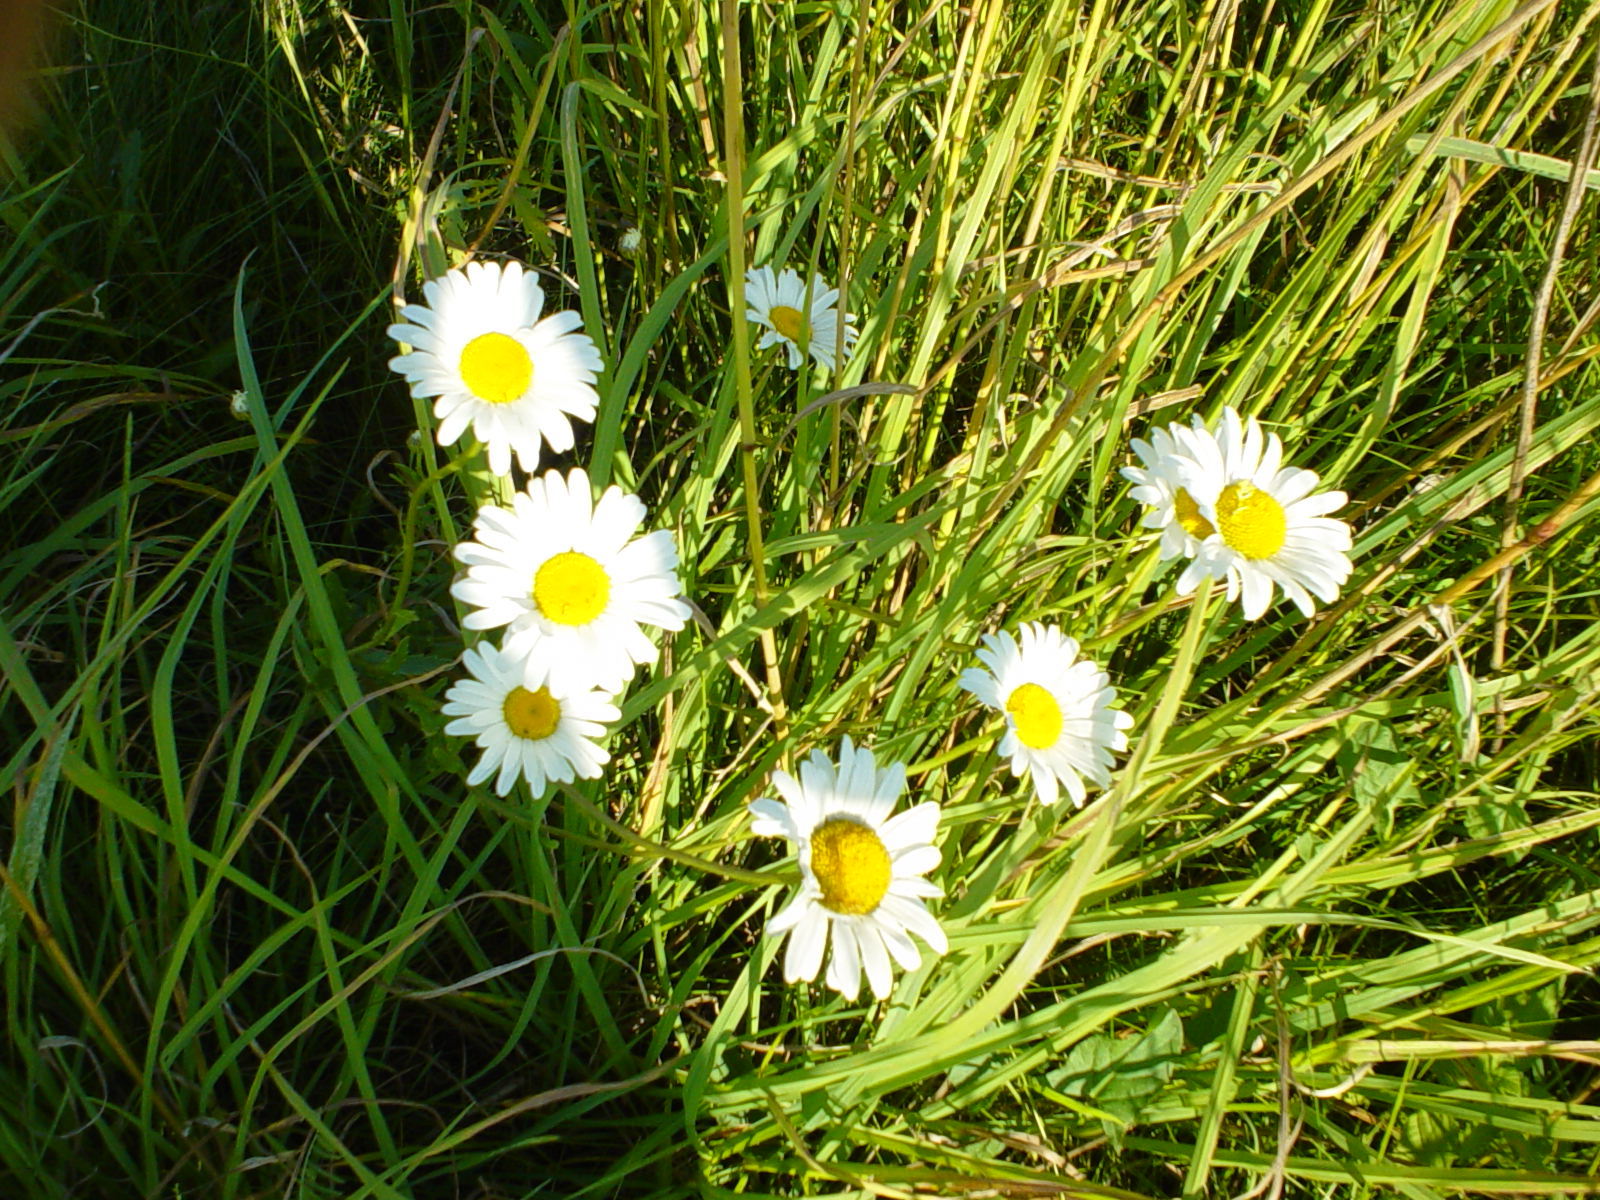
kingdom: Plantae
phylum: Tracheophyta
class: Magnoliopsida
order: Asterales
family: Asteraceae
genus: Leucanthemum
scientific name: Leucanthemum vulgare
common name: Oxeye daisy
